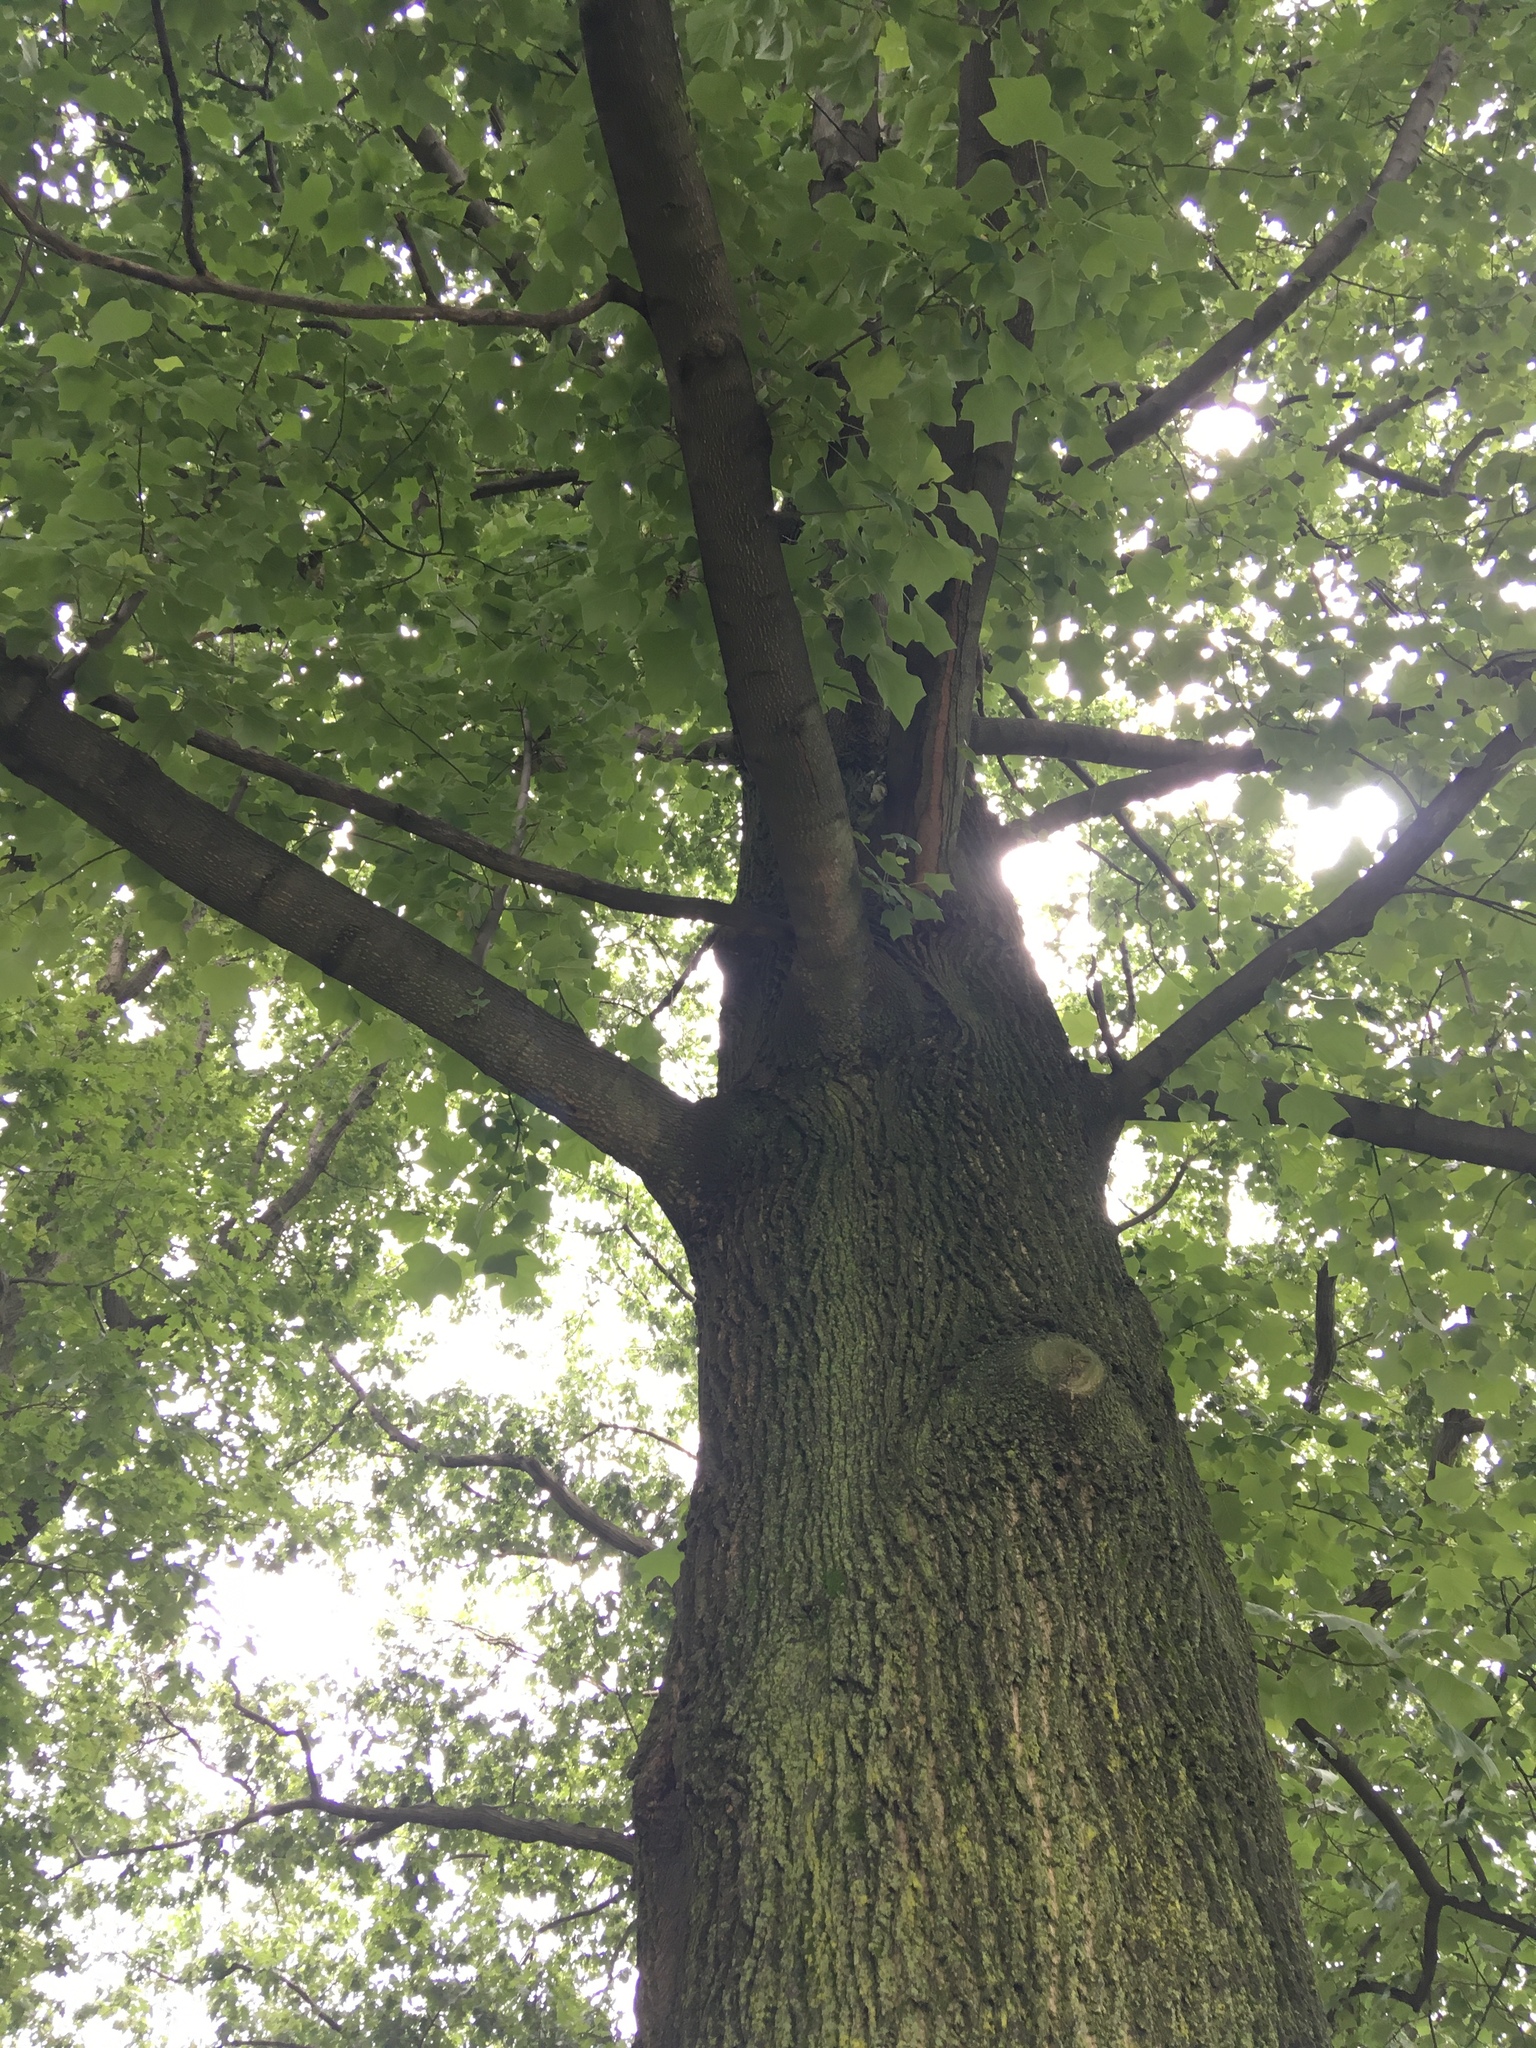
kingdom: Plantae
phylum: Tracheophyta
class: Magnoliopsida
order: Magnoliales
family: Magnoliaceae
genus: Liriodendron
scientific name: Liriodendron tulipifera
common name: Tulip tree
